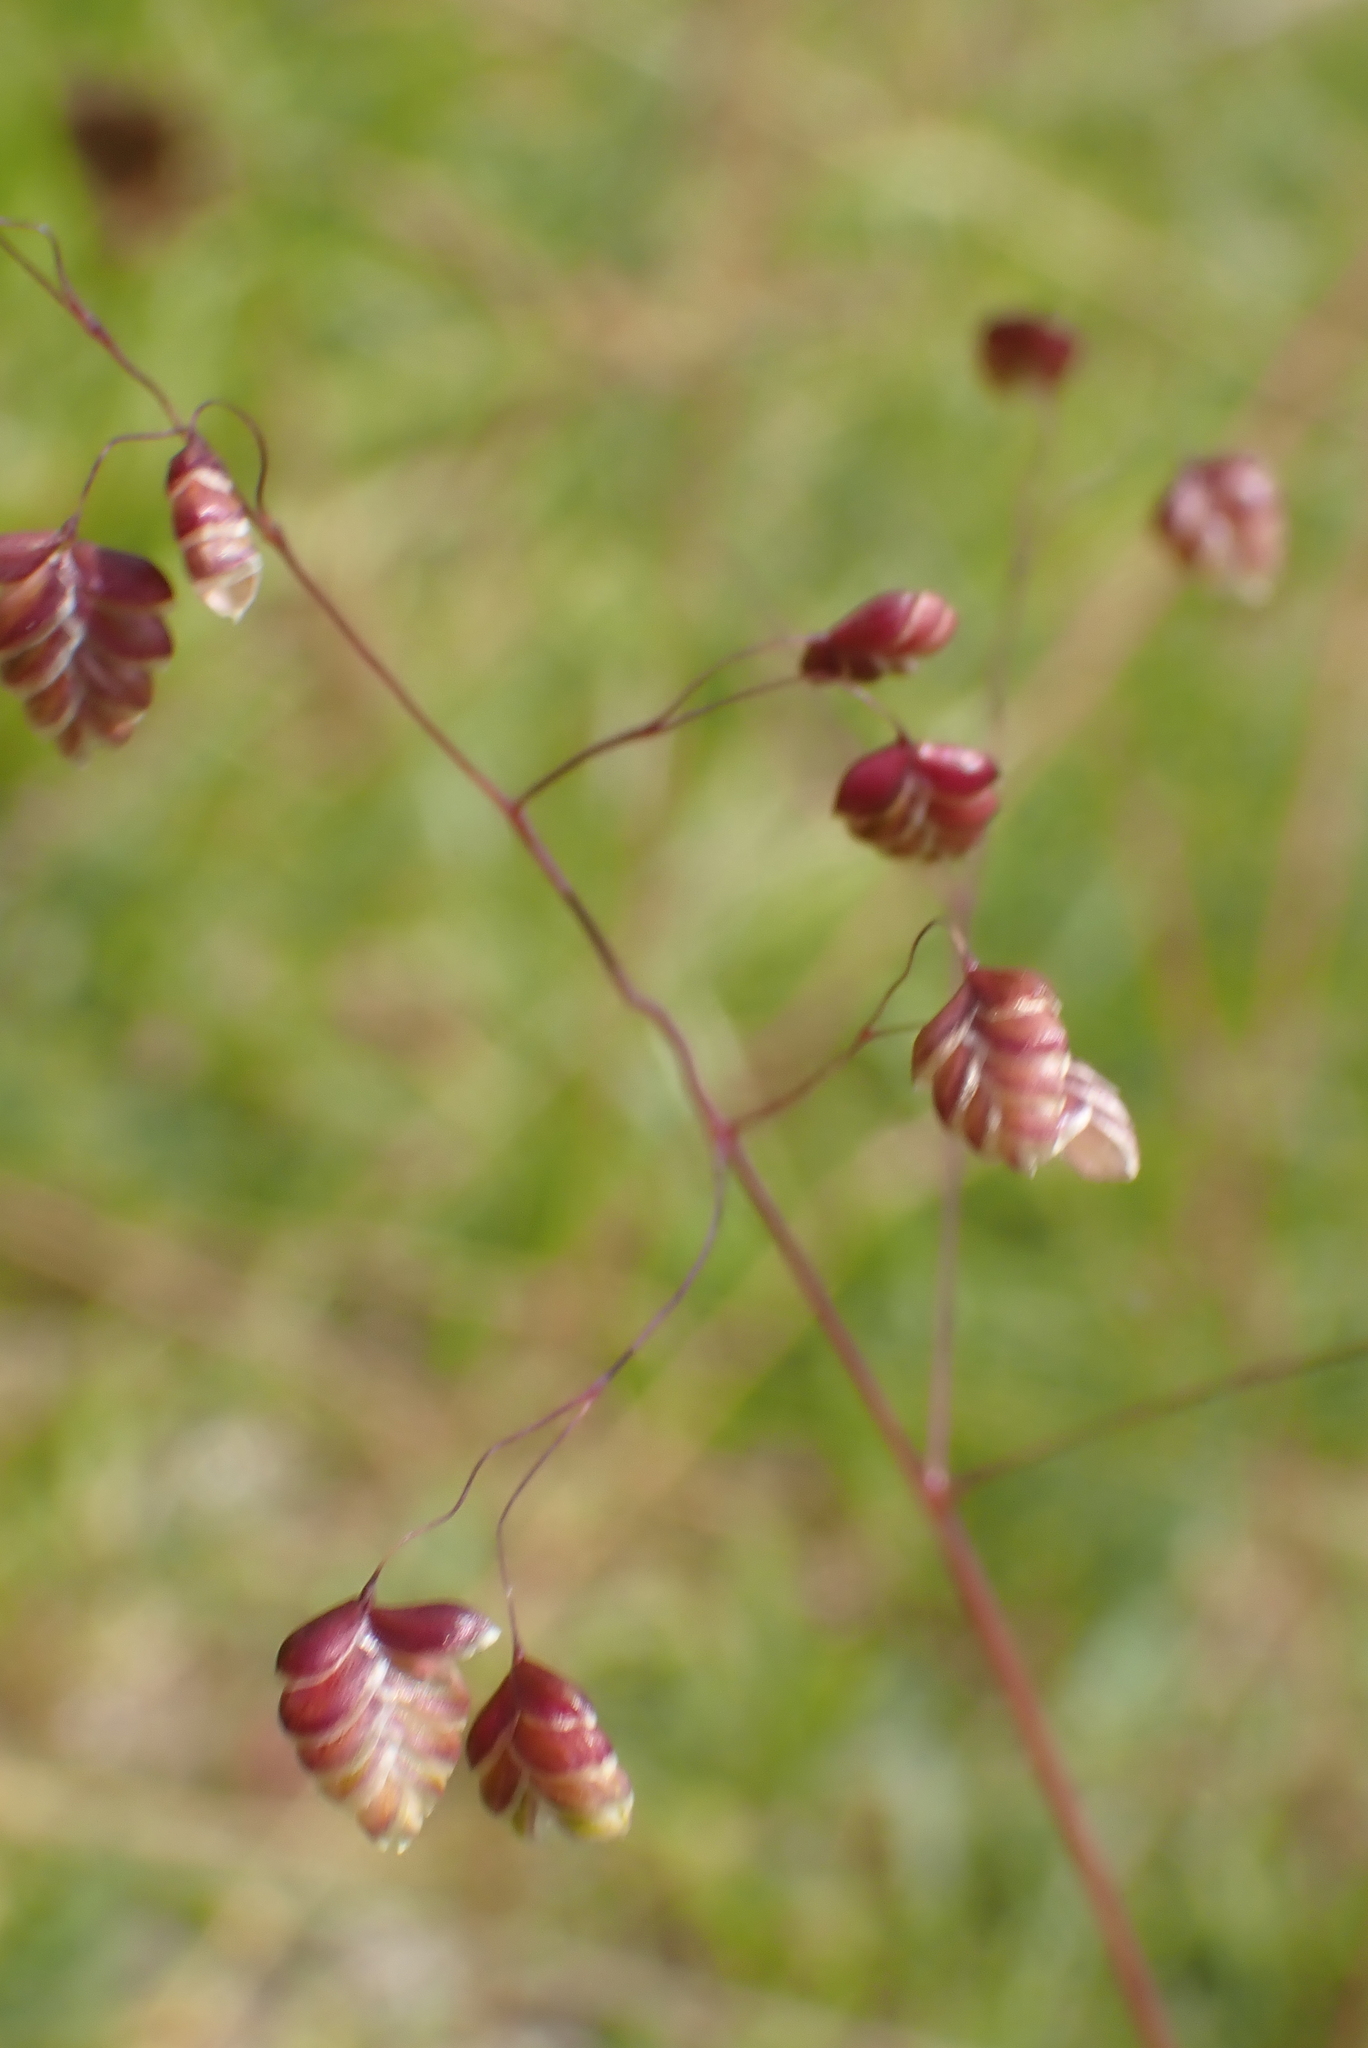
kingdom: Plantae
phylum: Tracheophyta
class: Liliopsida
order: Poales
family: Poaceae
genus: Briza
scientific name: Briza media
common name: Quaking grass
